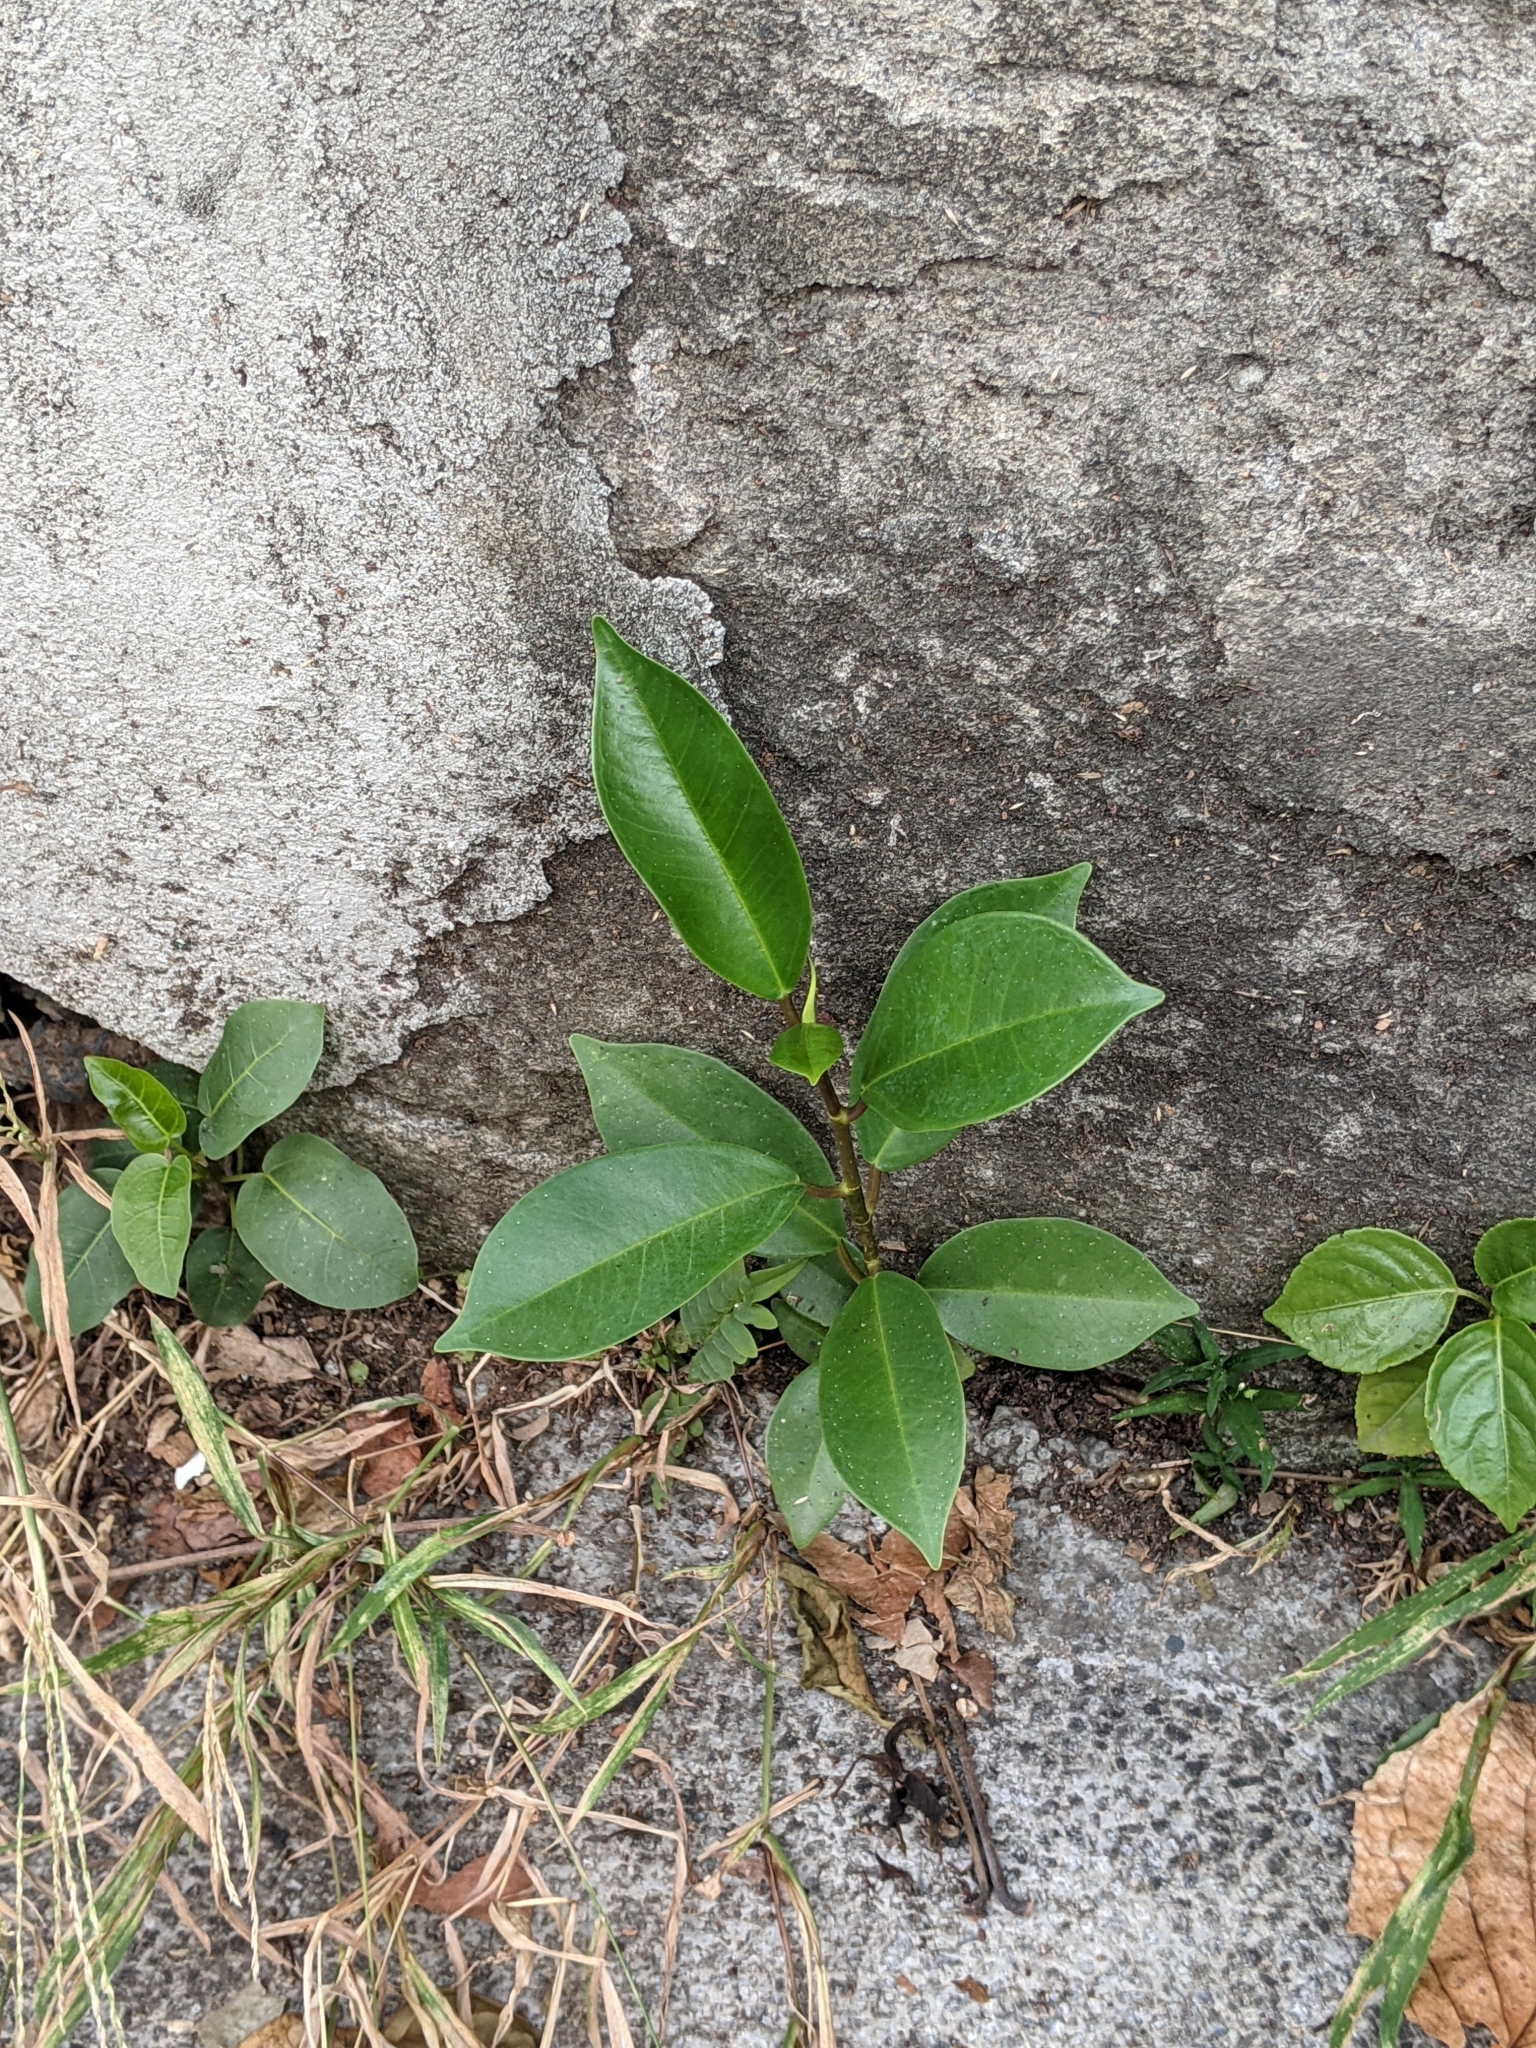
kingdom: Plantae
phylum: Tracheophyta
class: Magnoliopsida
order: Rosales
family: Moraceae
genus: Ficus
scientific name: Ficus microcarpa
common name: Chinese banyan
